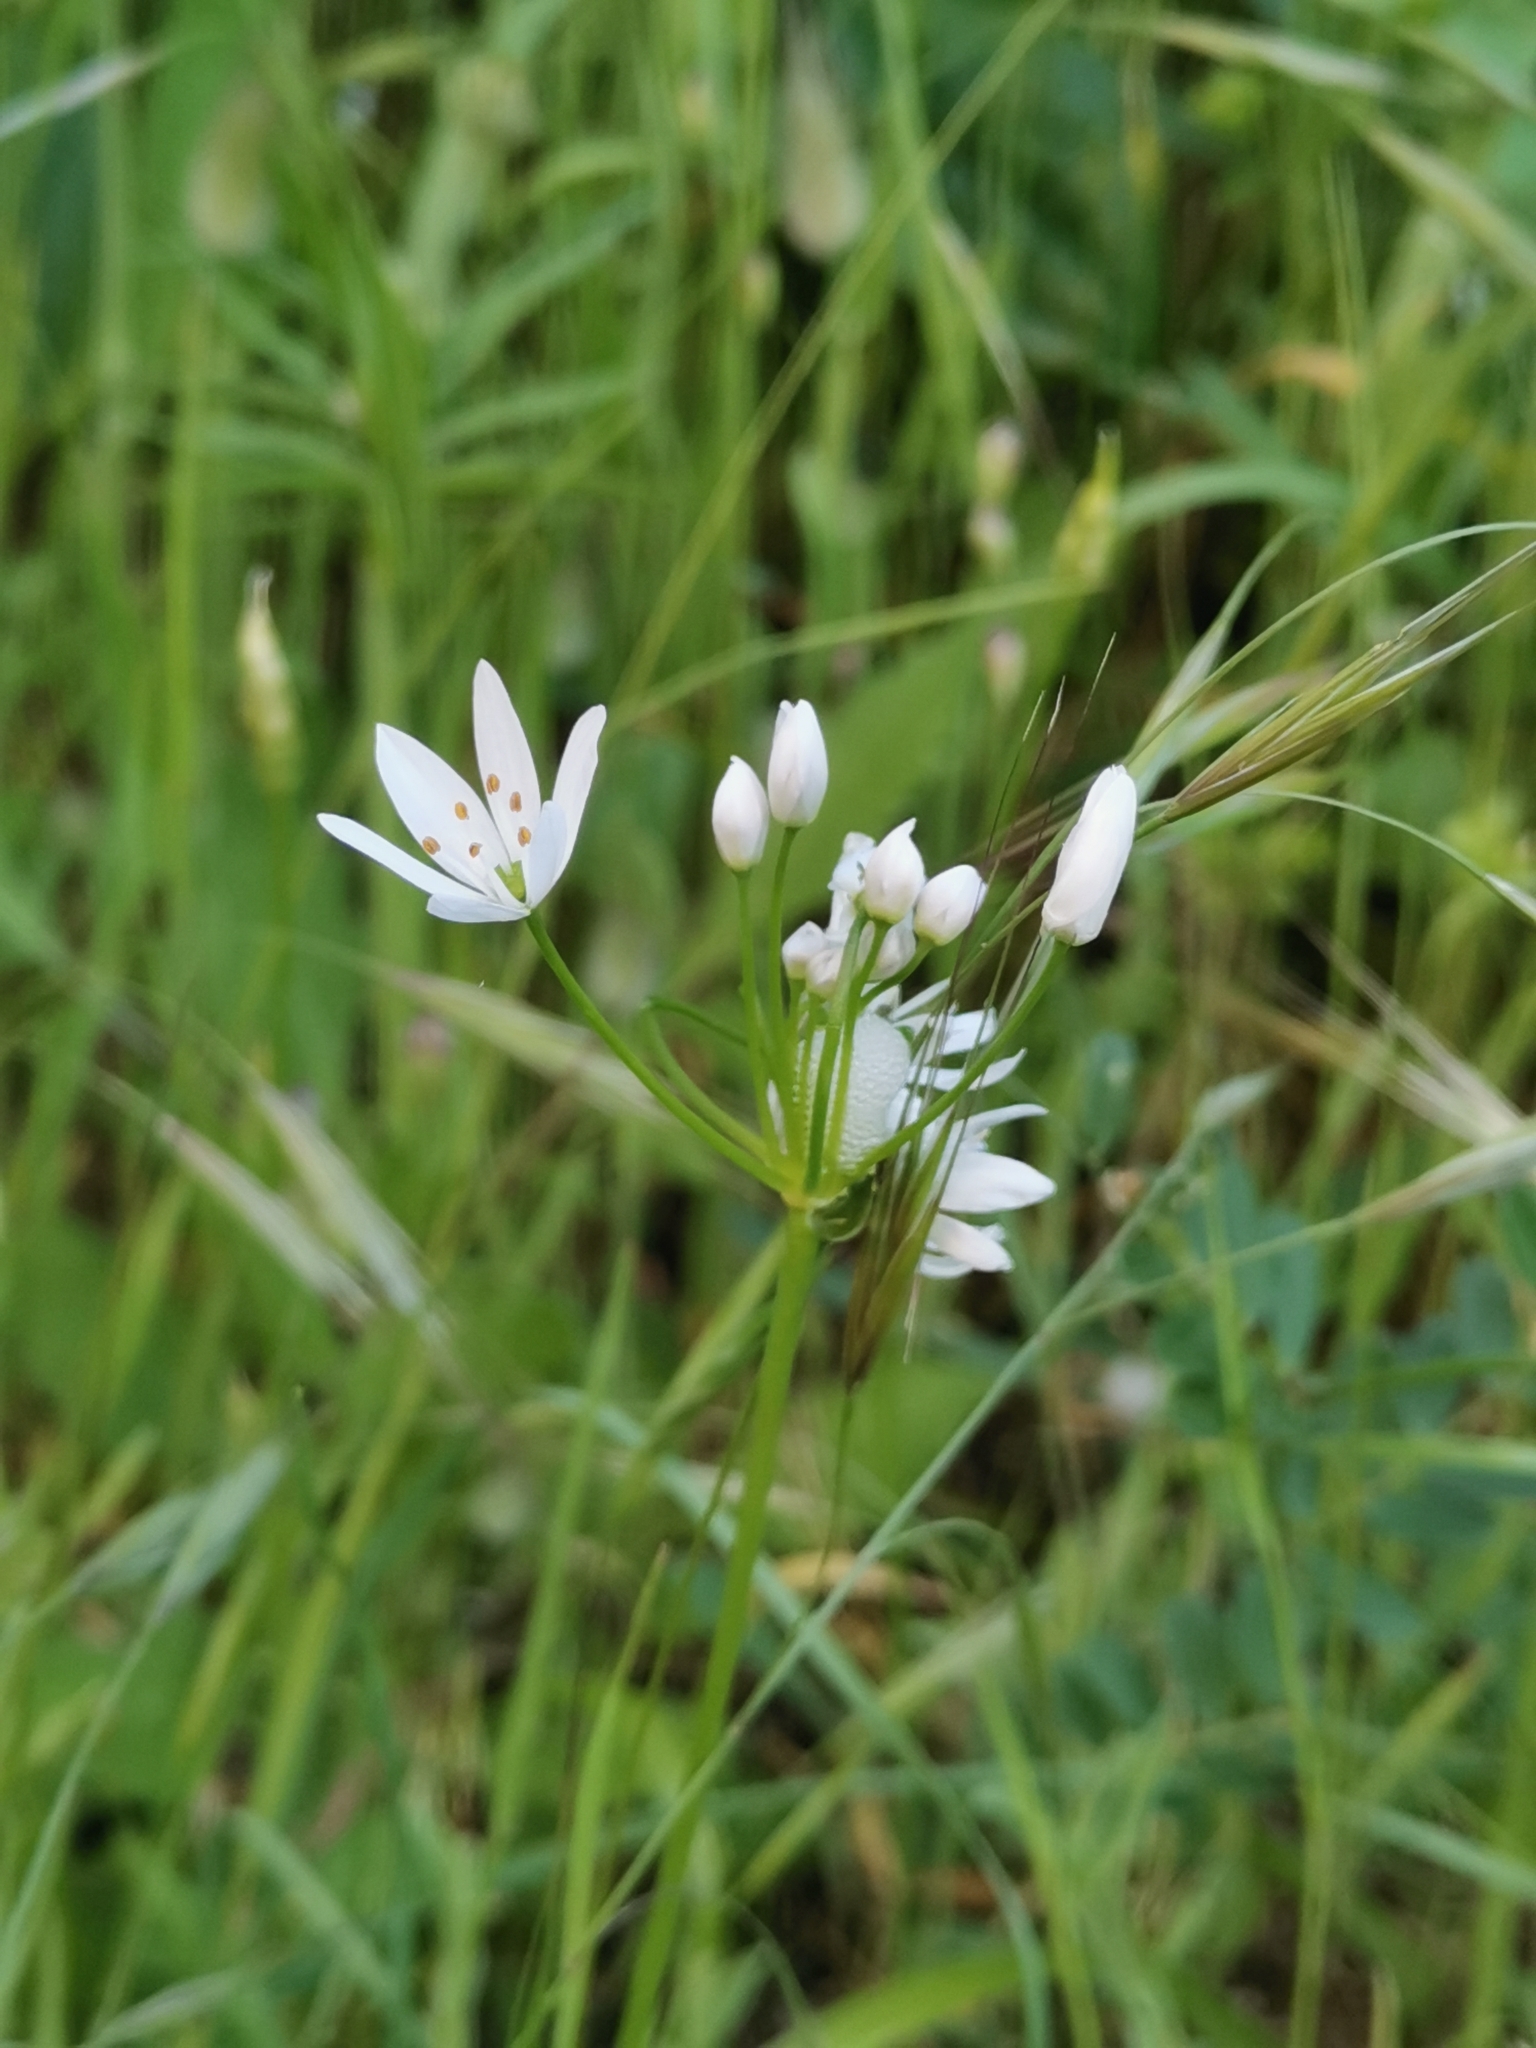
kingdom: Plantae
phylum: Tracheophyta
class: Liliopsida
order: Asparagales
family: Amaryllidaceae
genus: Allium
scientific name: Allium subhirsutum
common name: Hairy garlic
